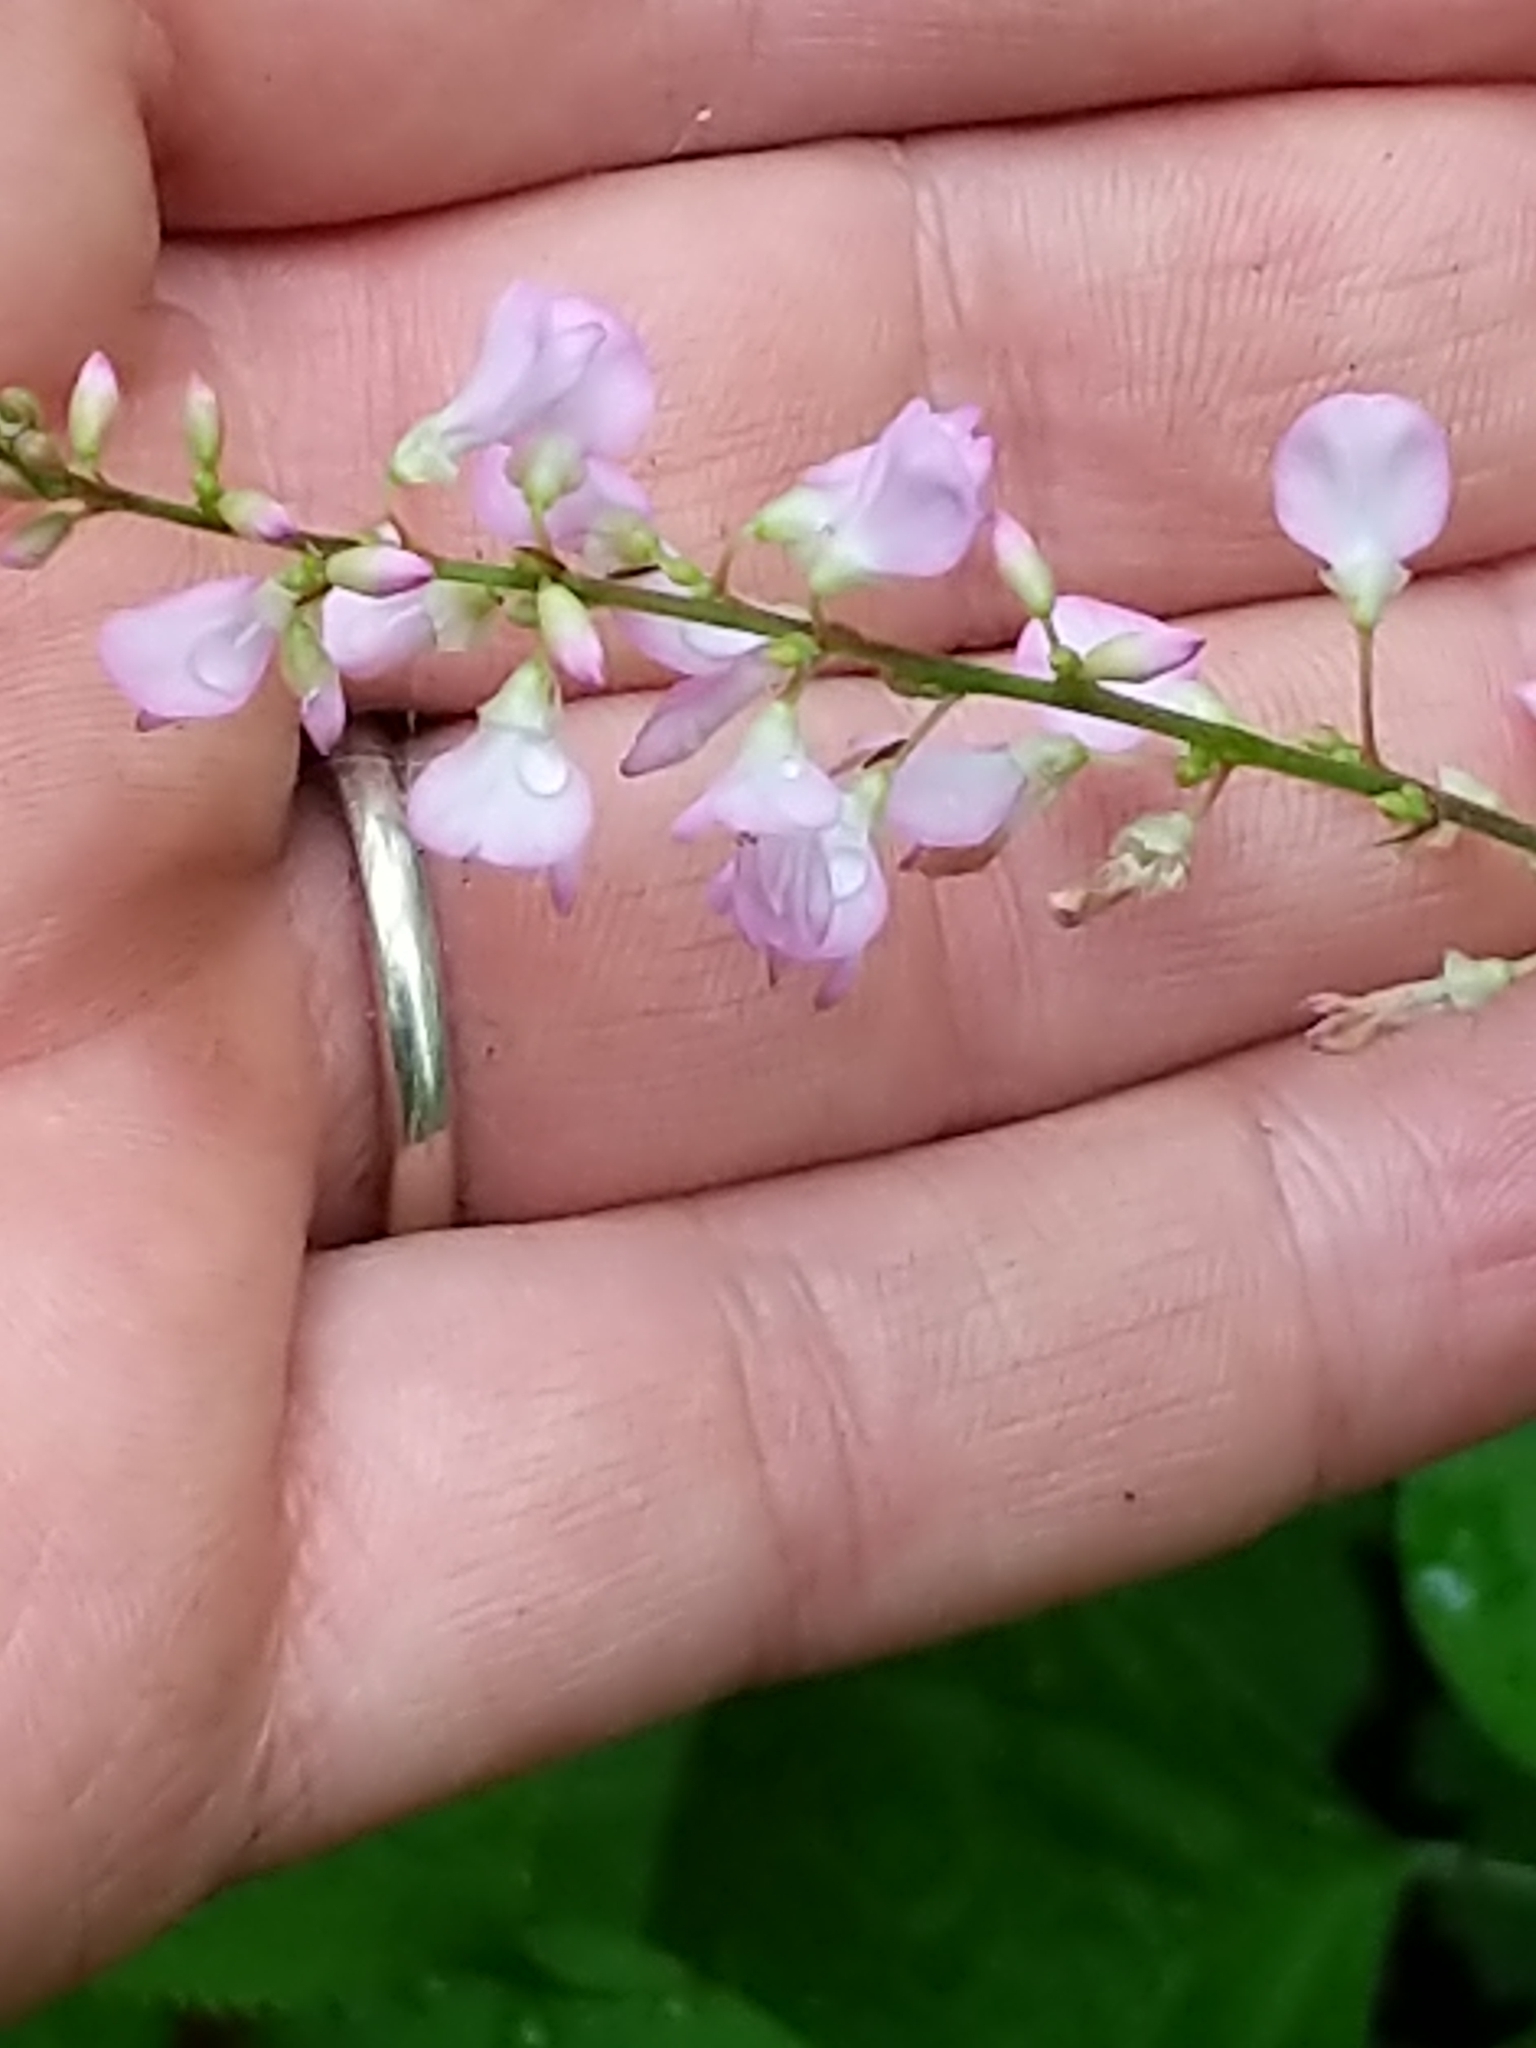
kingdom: Plantae
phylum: Tracheophyta
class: Magnoliopsida
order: Fabales
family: Fabaceae
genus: Hylodesmum
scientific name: Hylodesmum glutinosum
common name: Clustered-leaved tick-trefoil
